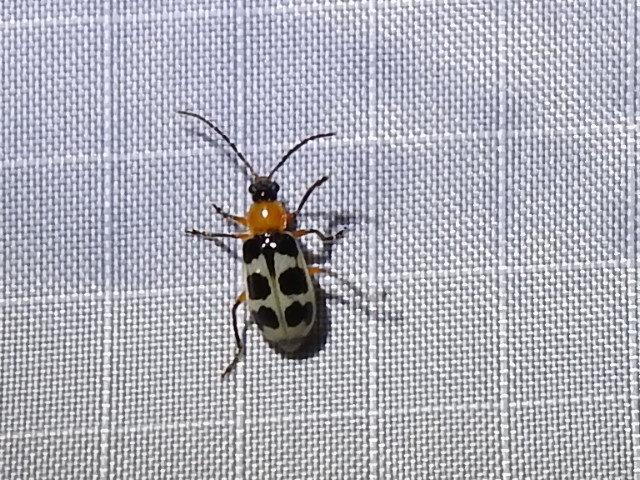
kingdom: Animalia
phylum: Arthropoda
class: Insecta
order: Coleoptera
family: Chrysomelidae
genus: Paranapiacaba
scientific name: Paranapiacaba tricincta
